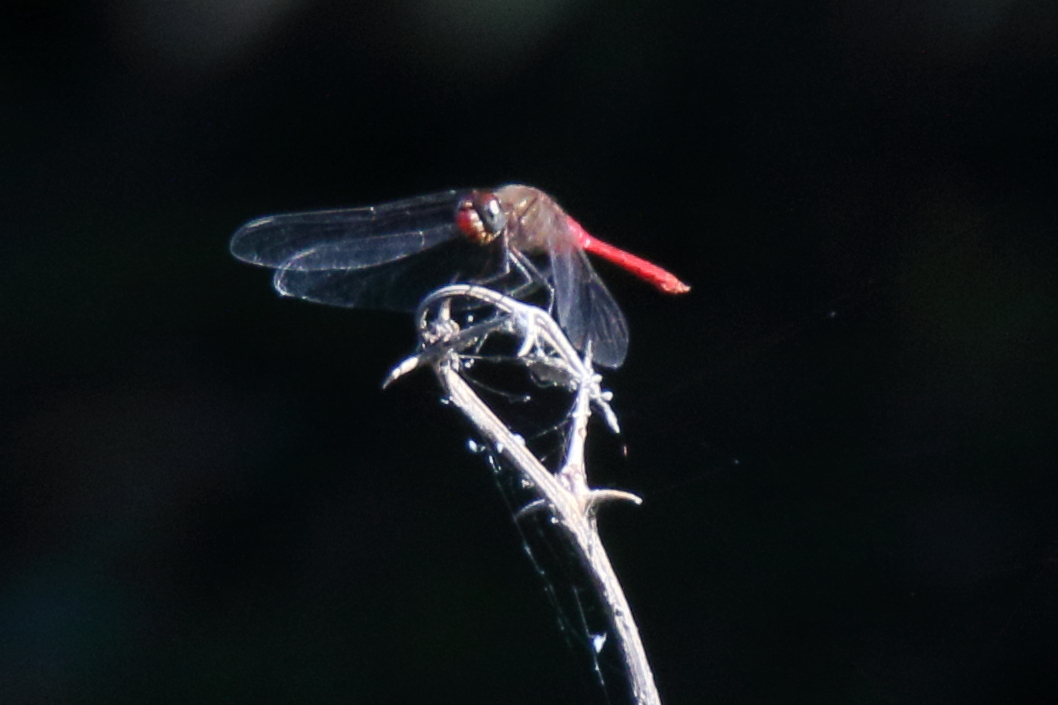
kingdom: Animalia
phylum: Arthropoda
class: Insecta
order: Odonata
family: Libellulidae
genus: Brachymesia
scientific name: Brachymesia furcata
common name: Red-taled pennant
